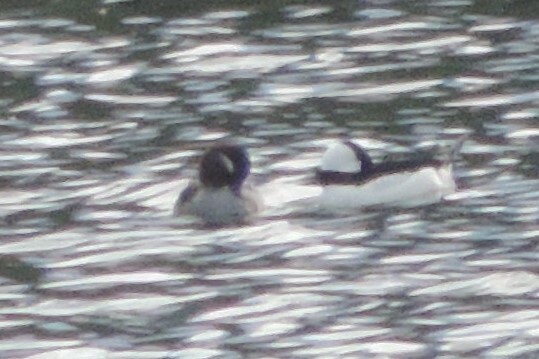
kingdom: Animalia
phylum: Chordata
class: Aves
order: Anseriformes
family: Anatidae
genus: Bucephala
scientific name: Bucephala albeola
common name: Bufflehead
